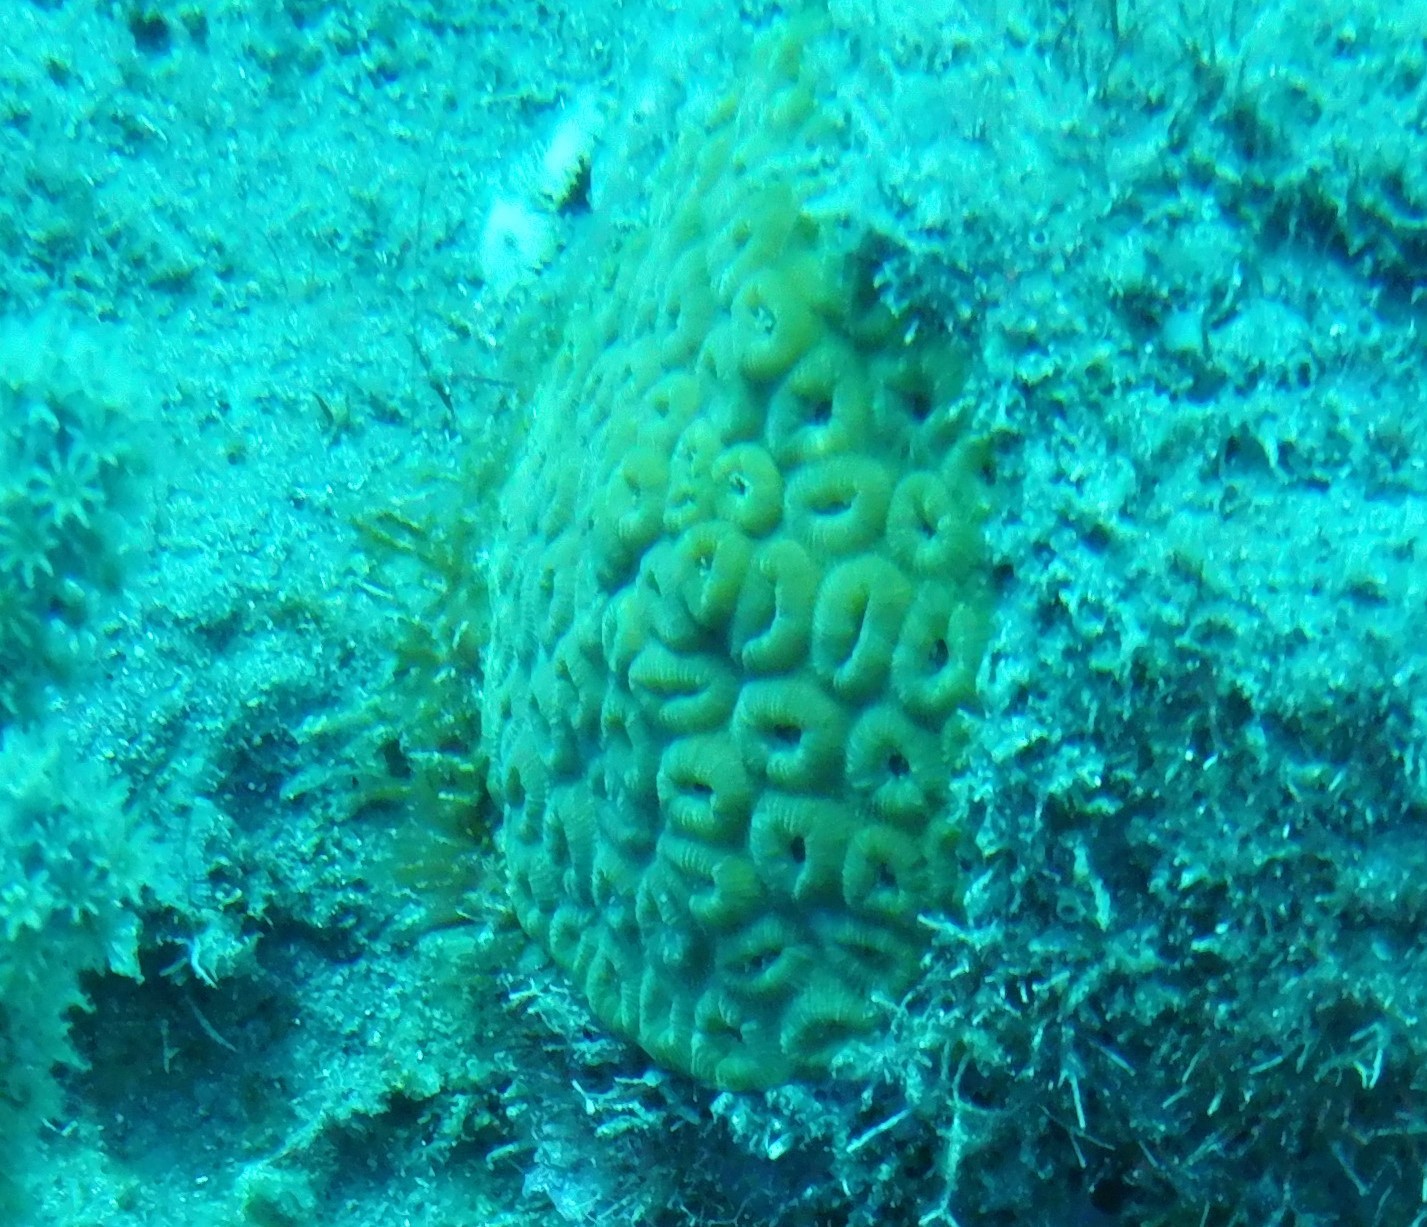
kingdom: Animalia
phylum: Cnidaria
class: Anthozoa
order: Scleractinia
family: Montastraeidae
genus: Montastraea
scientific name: Montastraea cavernosa
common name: Great star coral
